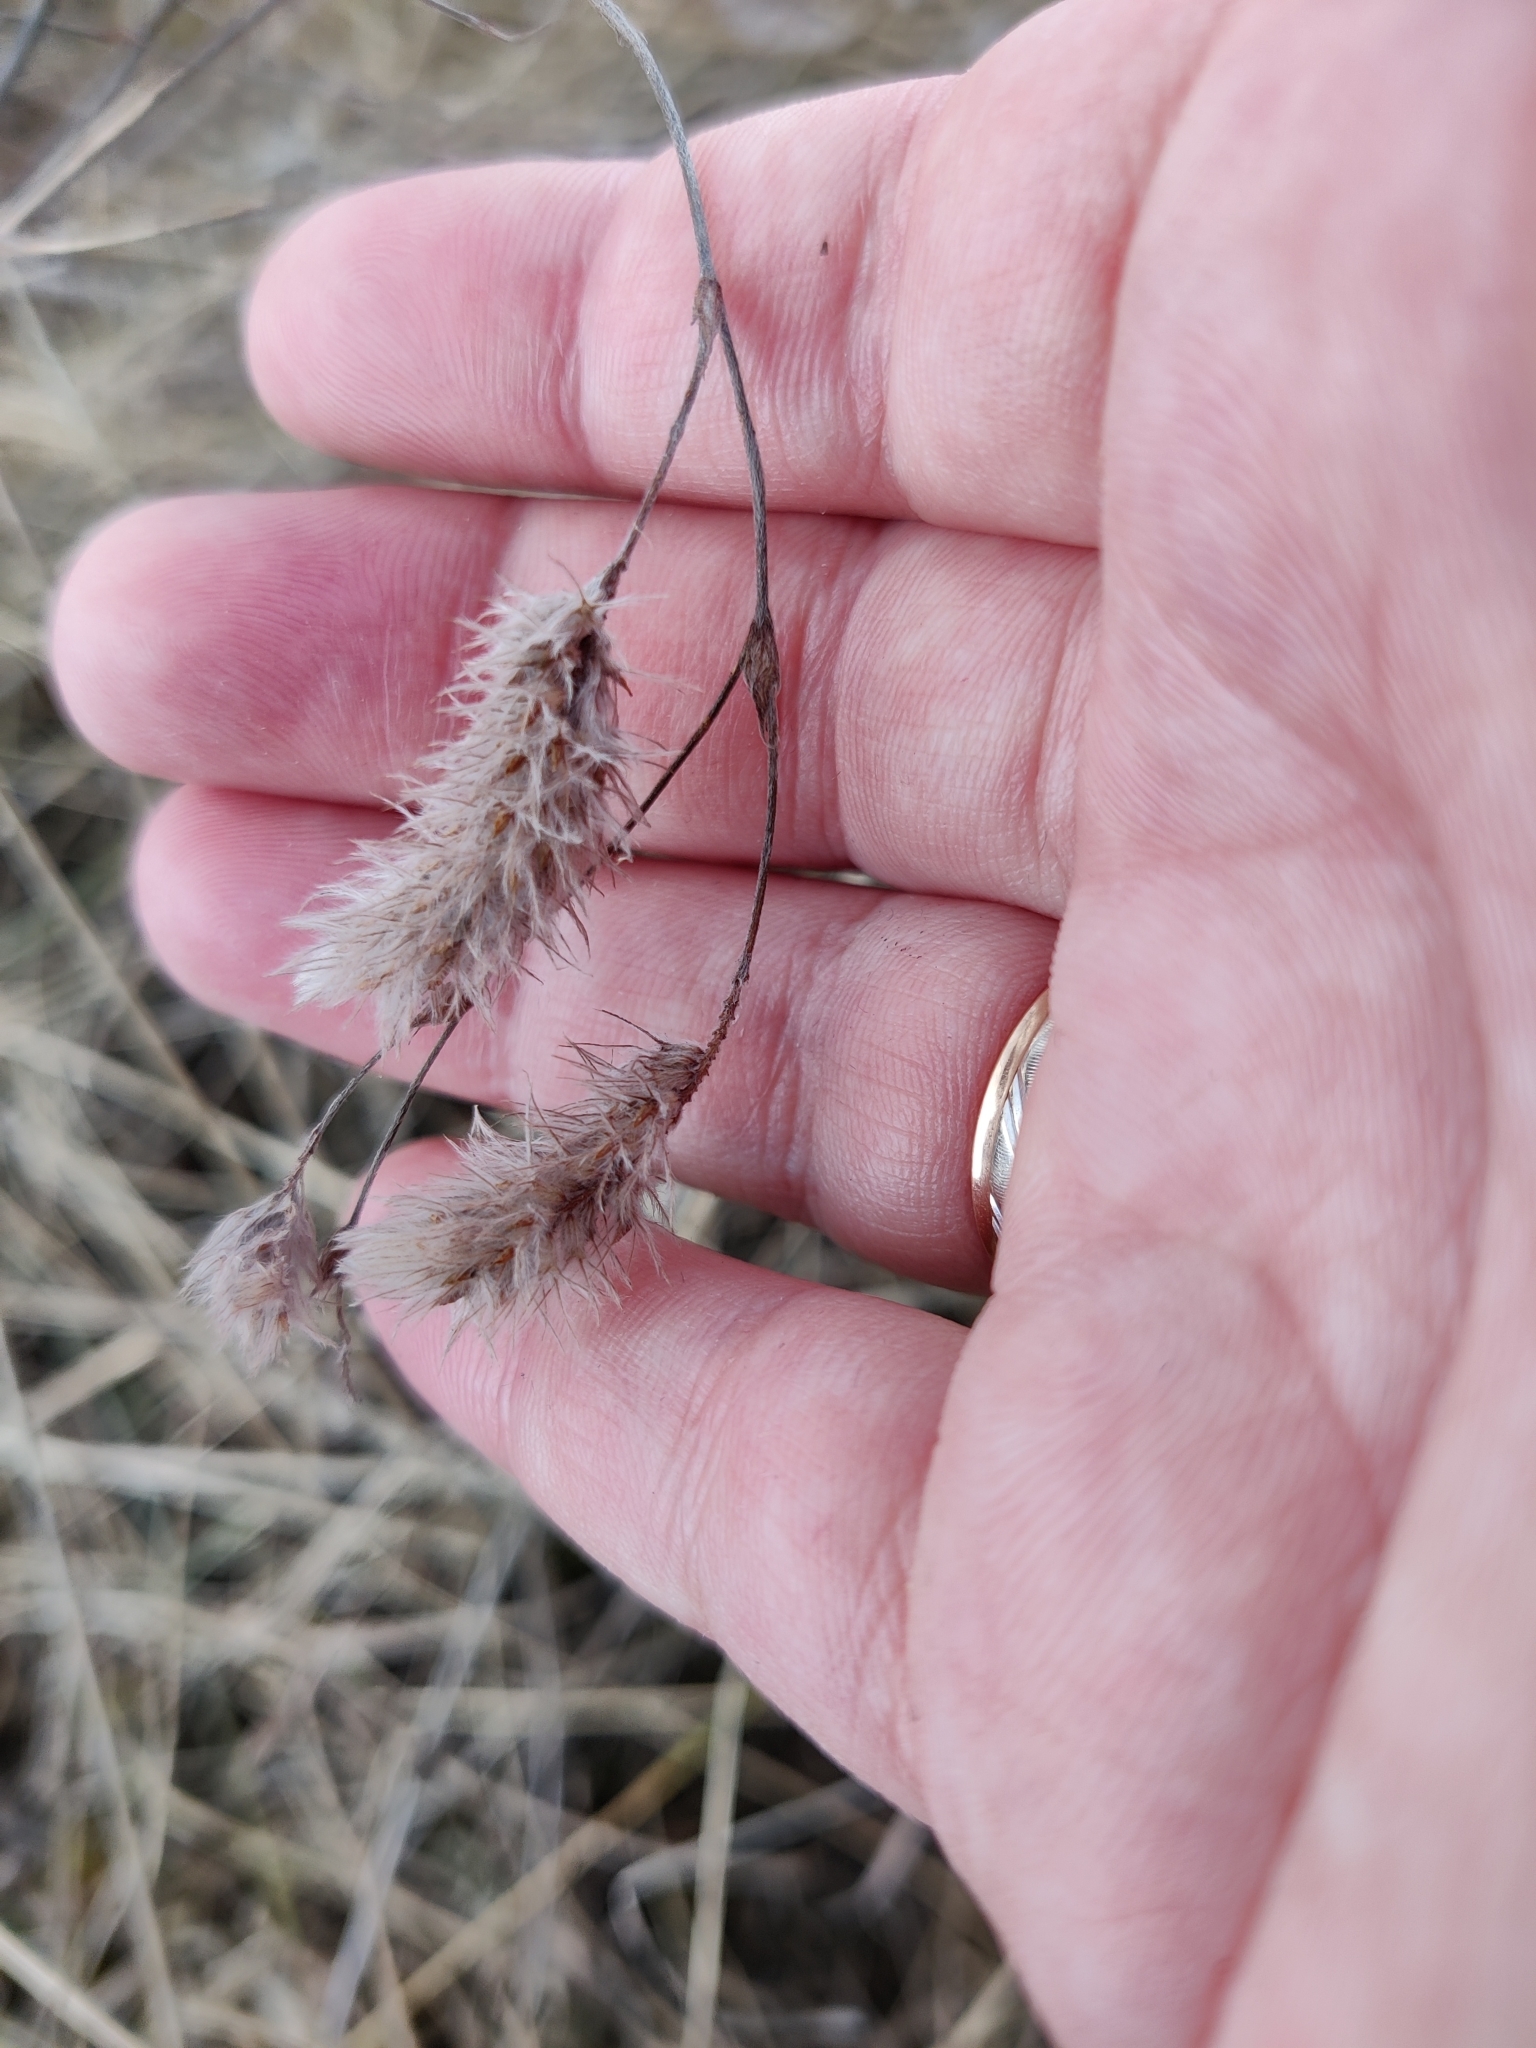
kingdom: Plantae
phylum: Tracheophyta
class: Magnoliopsida
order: Fabales
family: Fabaceae
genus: Trifolium
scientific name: Trifolium arvense
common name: Hare's-foot clover
